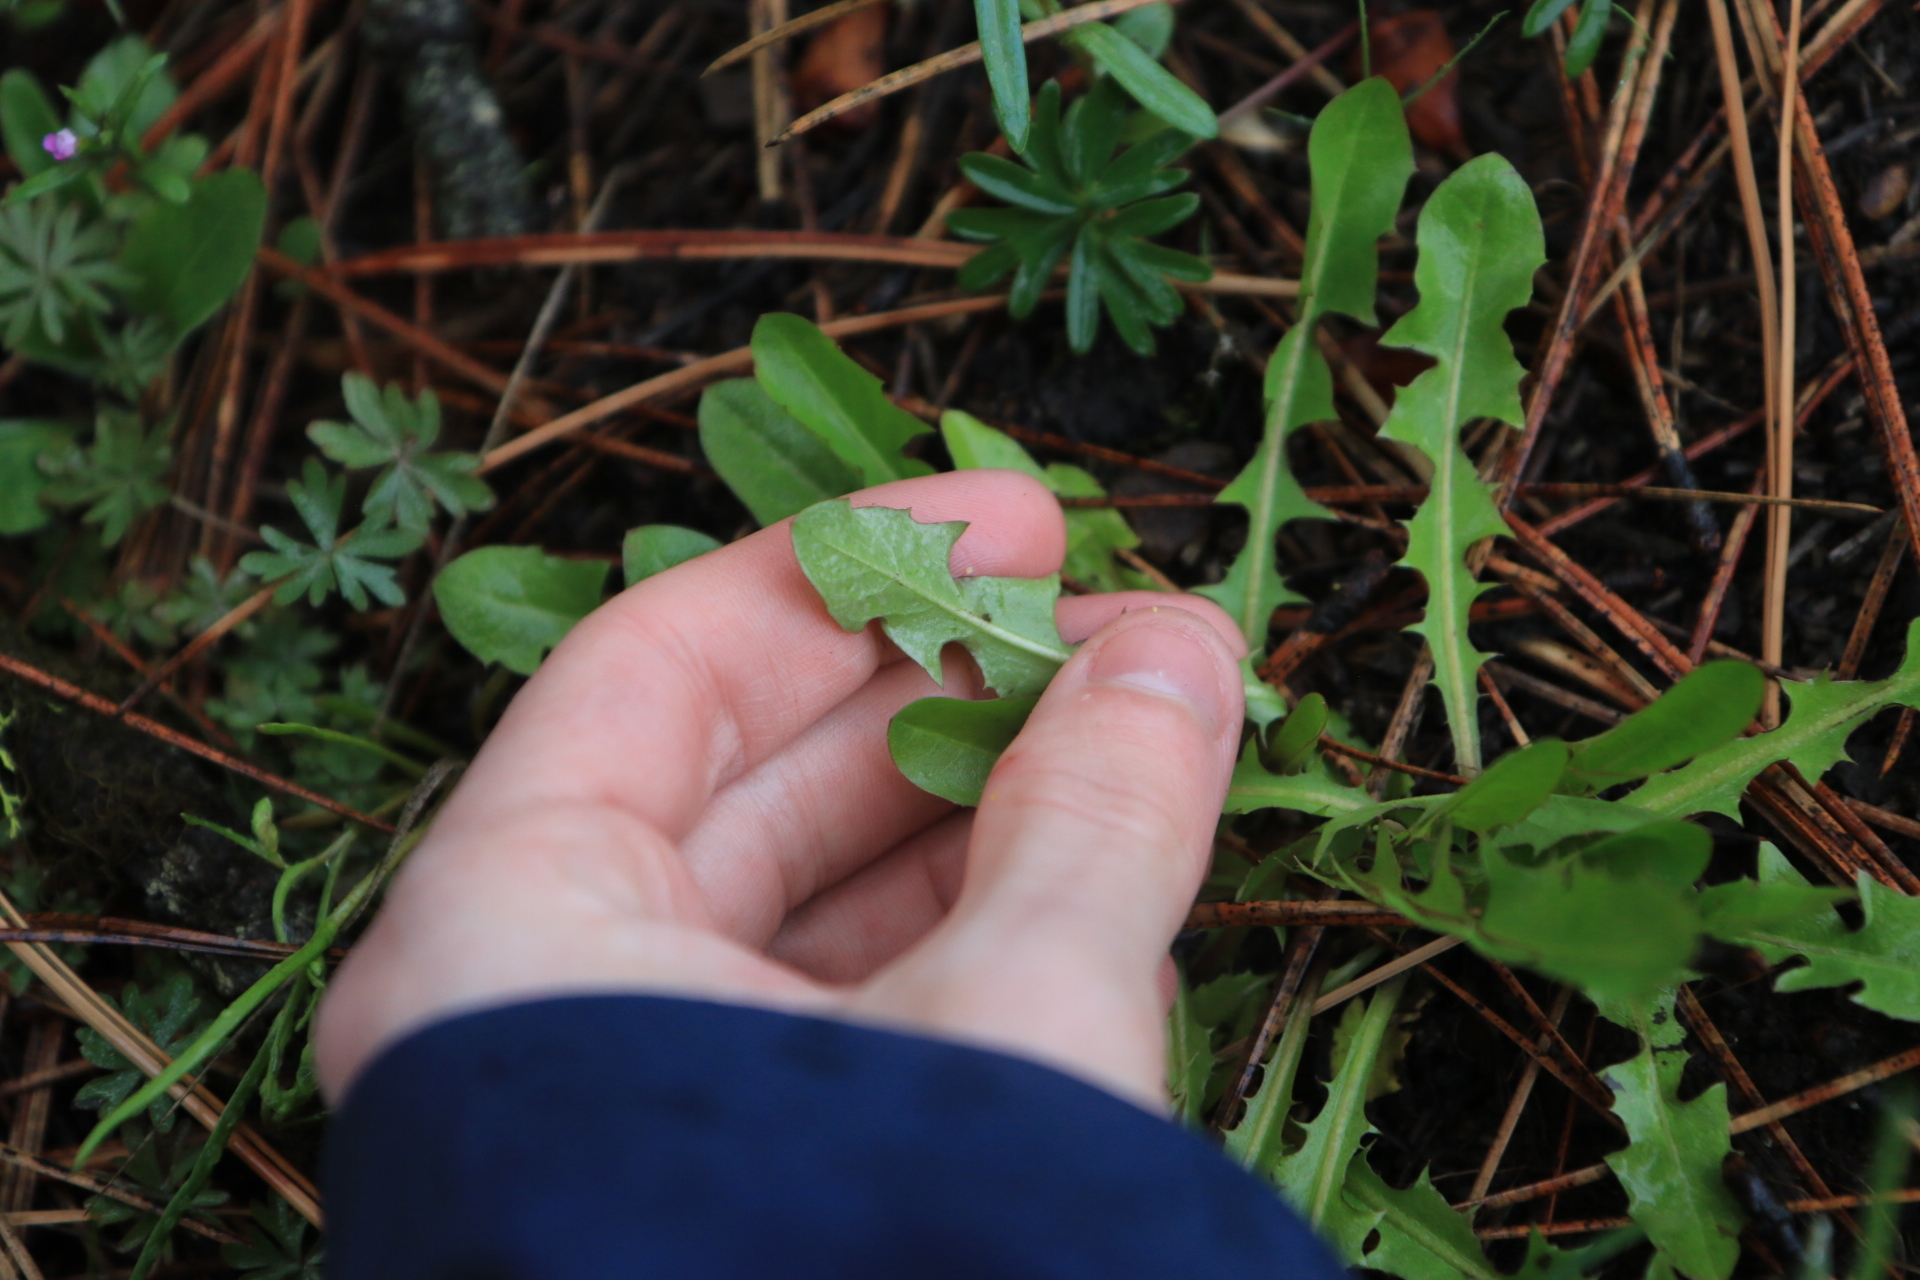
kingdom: Plantae
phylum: Tracheophyta
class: Magnoliopsida
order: Asterales
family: Asteraceae
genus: Taraxacum
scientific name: Taraxacum
